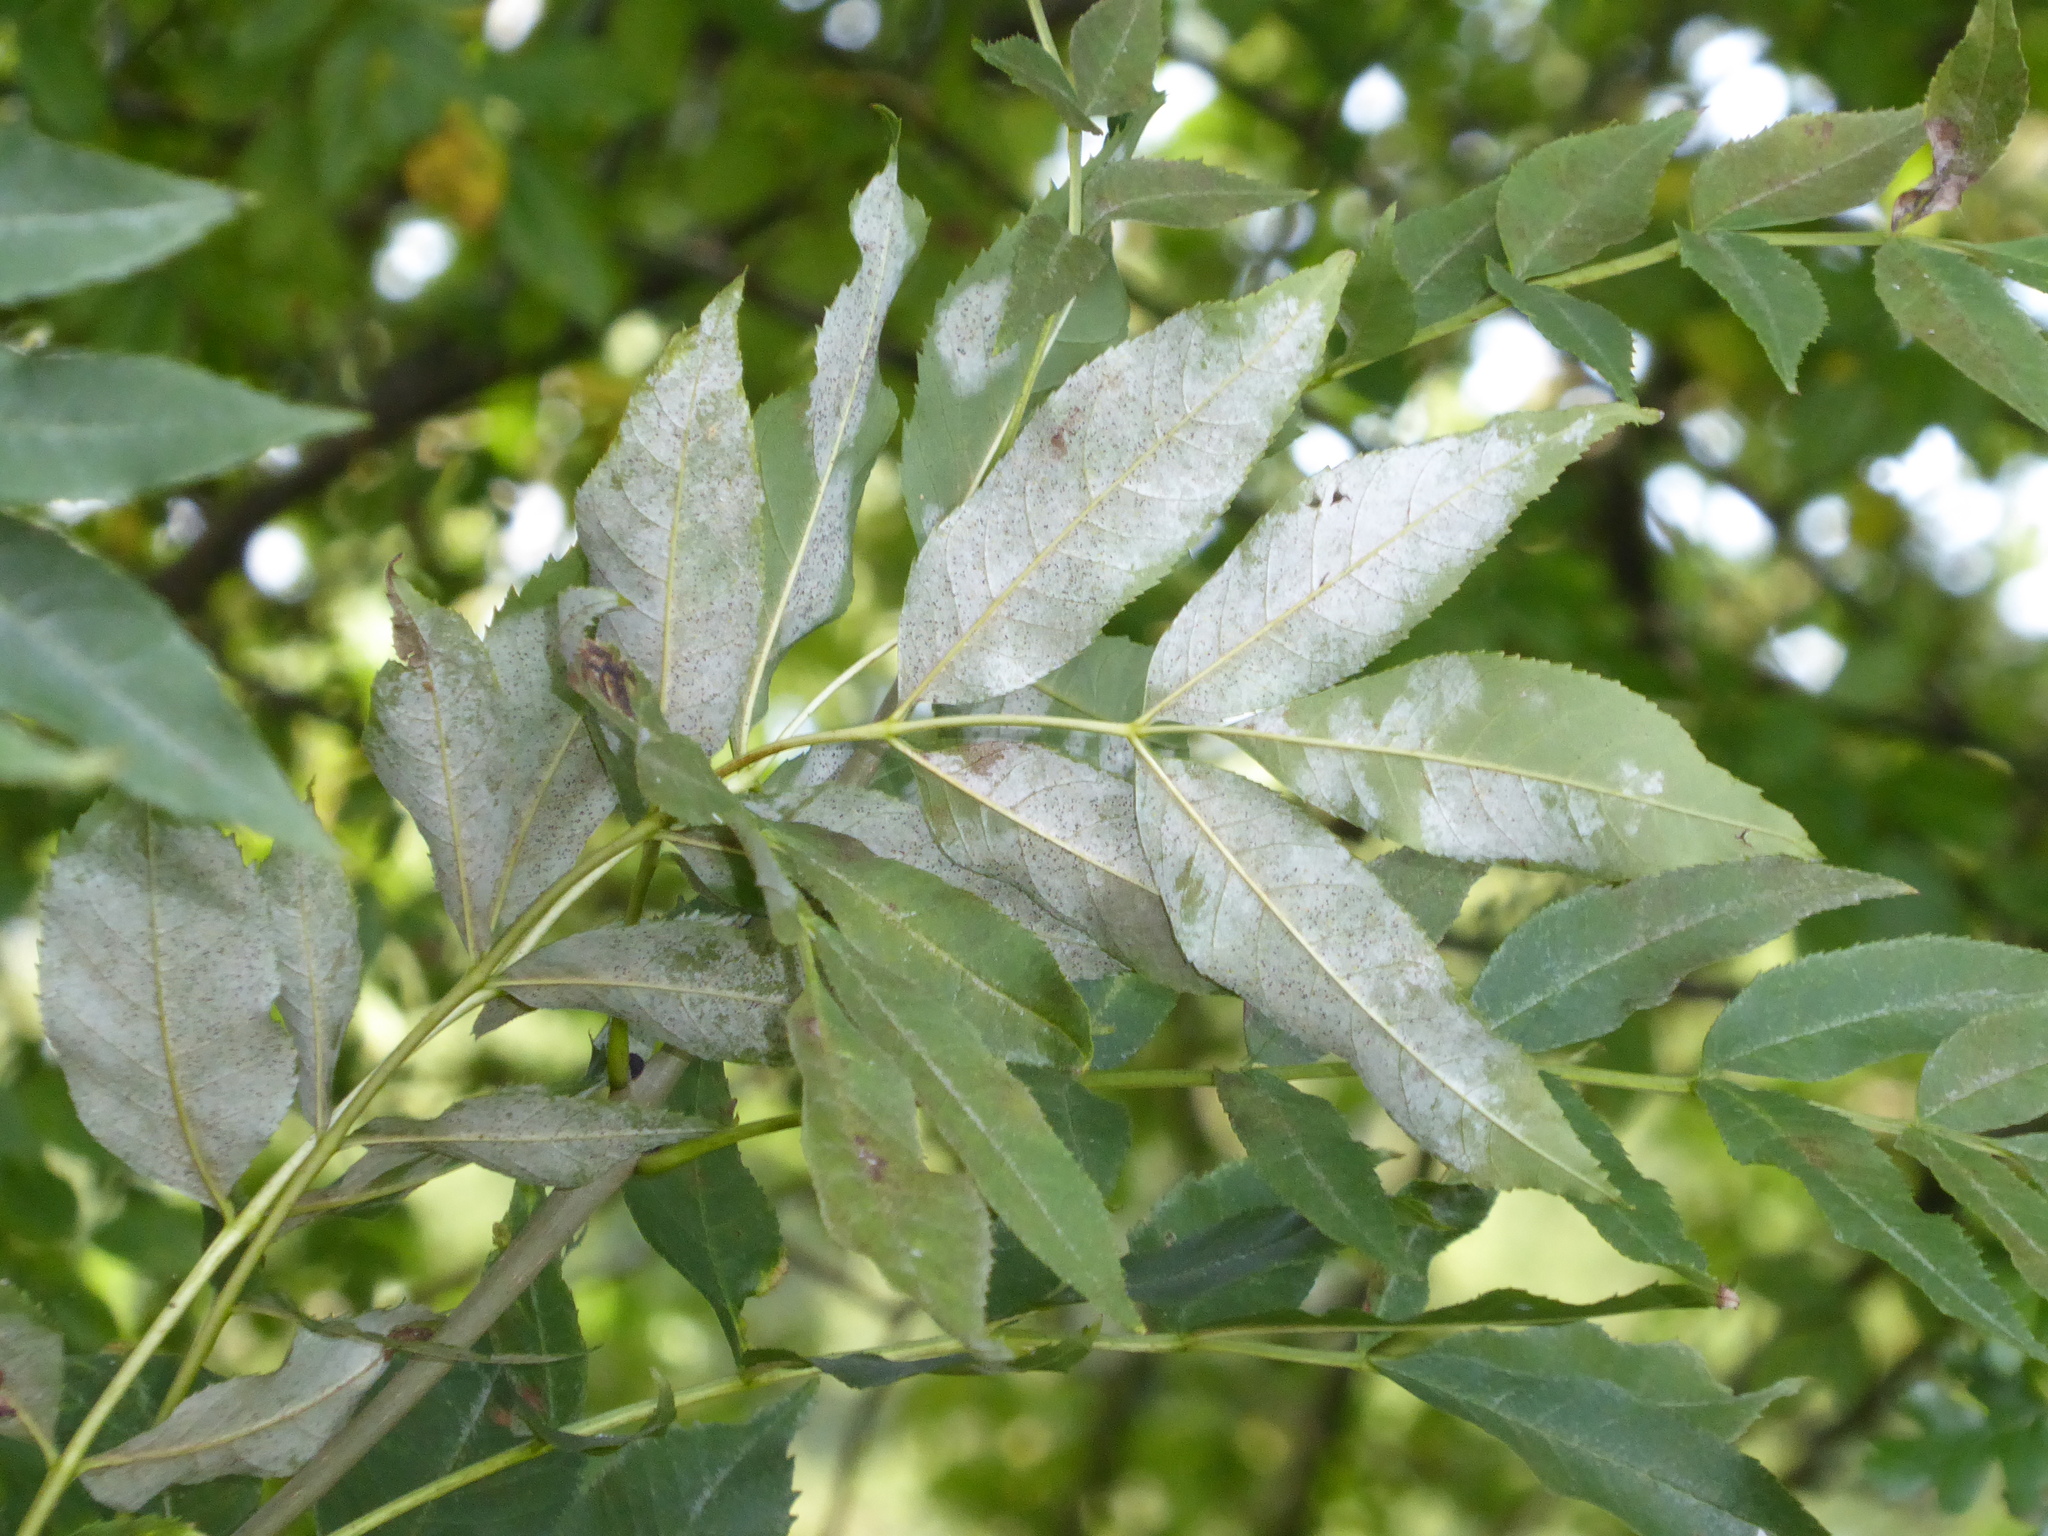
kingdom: Fungi
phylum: Ascomycota
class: Leotiomycetes
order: Helotiales
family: Erysiphaceae
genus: Phyllactinia
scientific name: Phyllactinia fraxini
